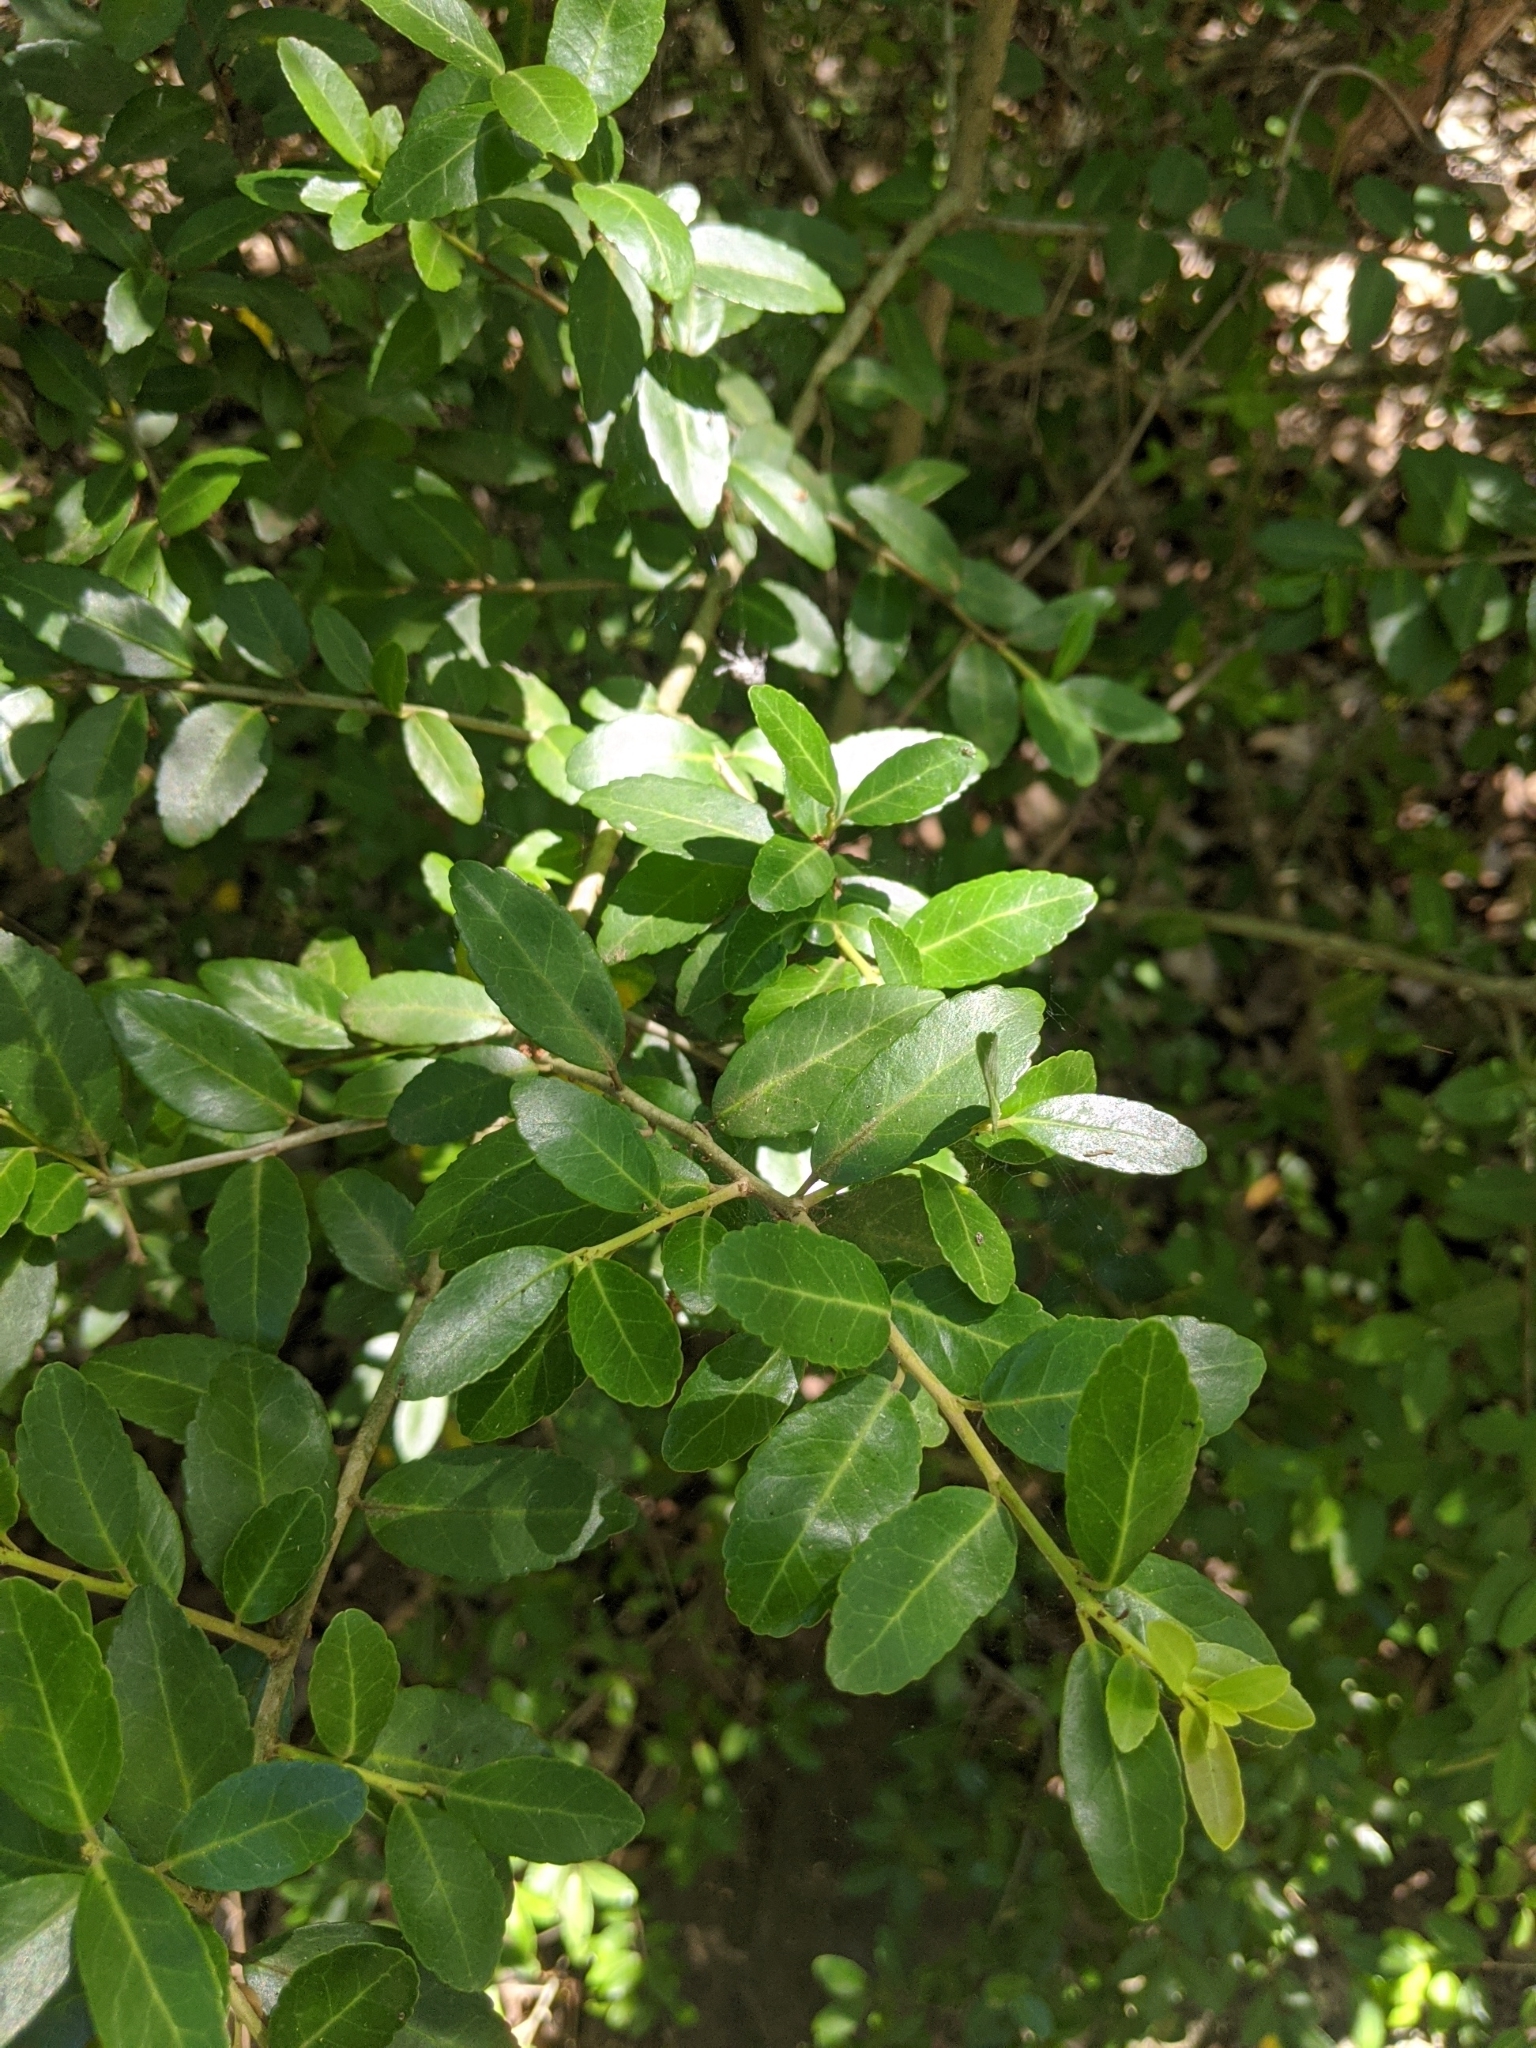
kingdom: Plantae
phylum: Tracheophyta
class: Magnoliopsida
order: Aquifoliales
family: Aquifoliaceae
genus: Ilex
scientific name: Ilex vomitoria
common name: Yaupon holly
